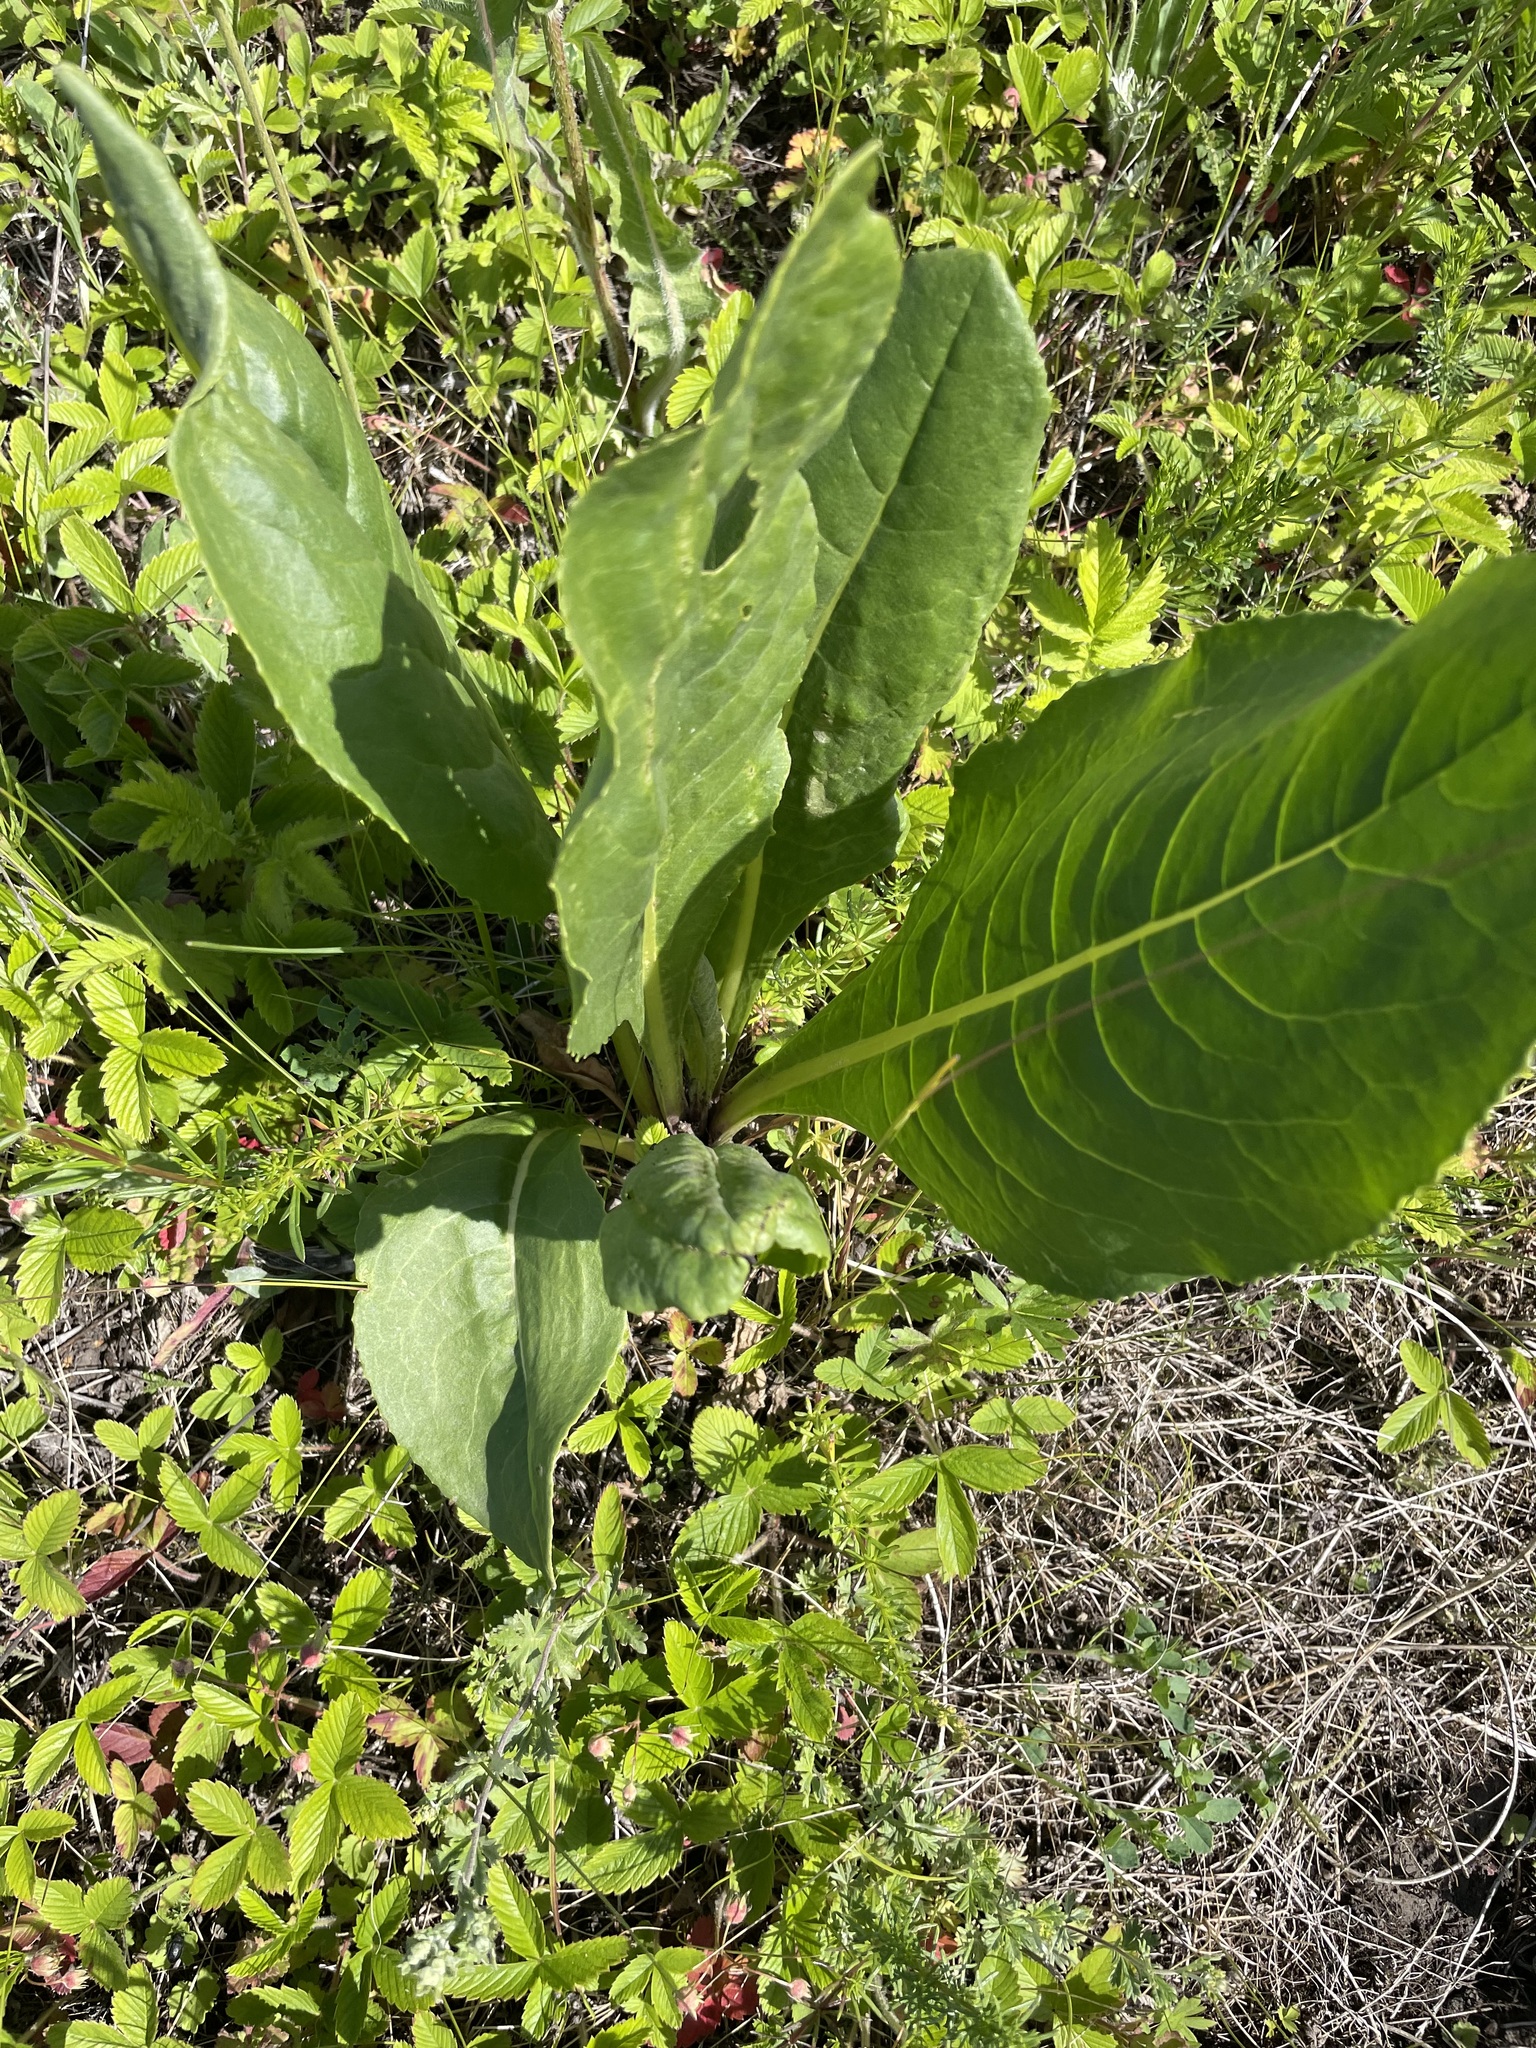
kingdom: Plantae
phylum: Tracheophyta
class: Magnoliopsida
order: Asterales
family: Asteraceae
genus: Senecio
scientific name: Senecio doria
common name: Golden ragwort
